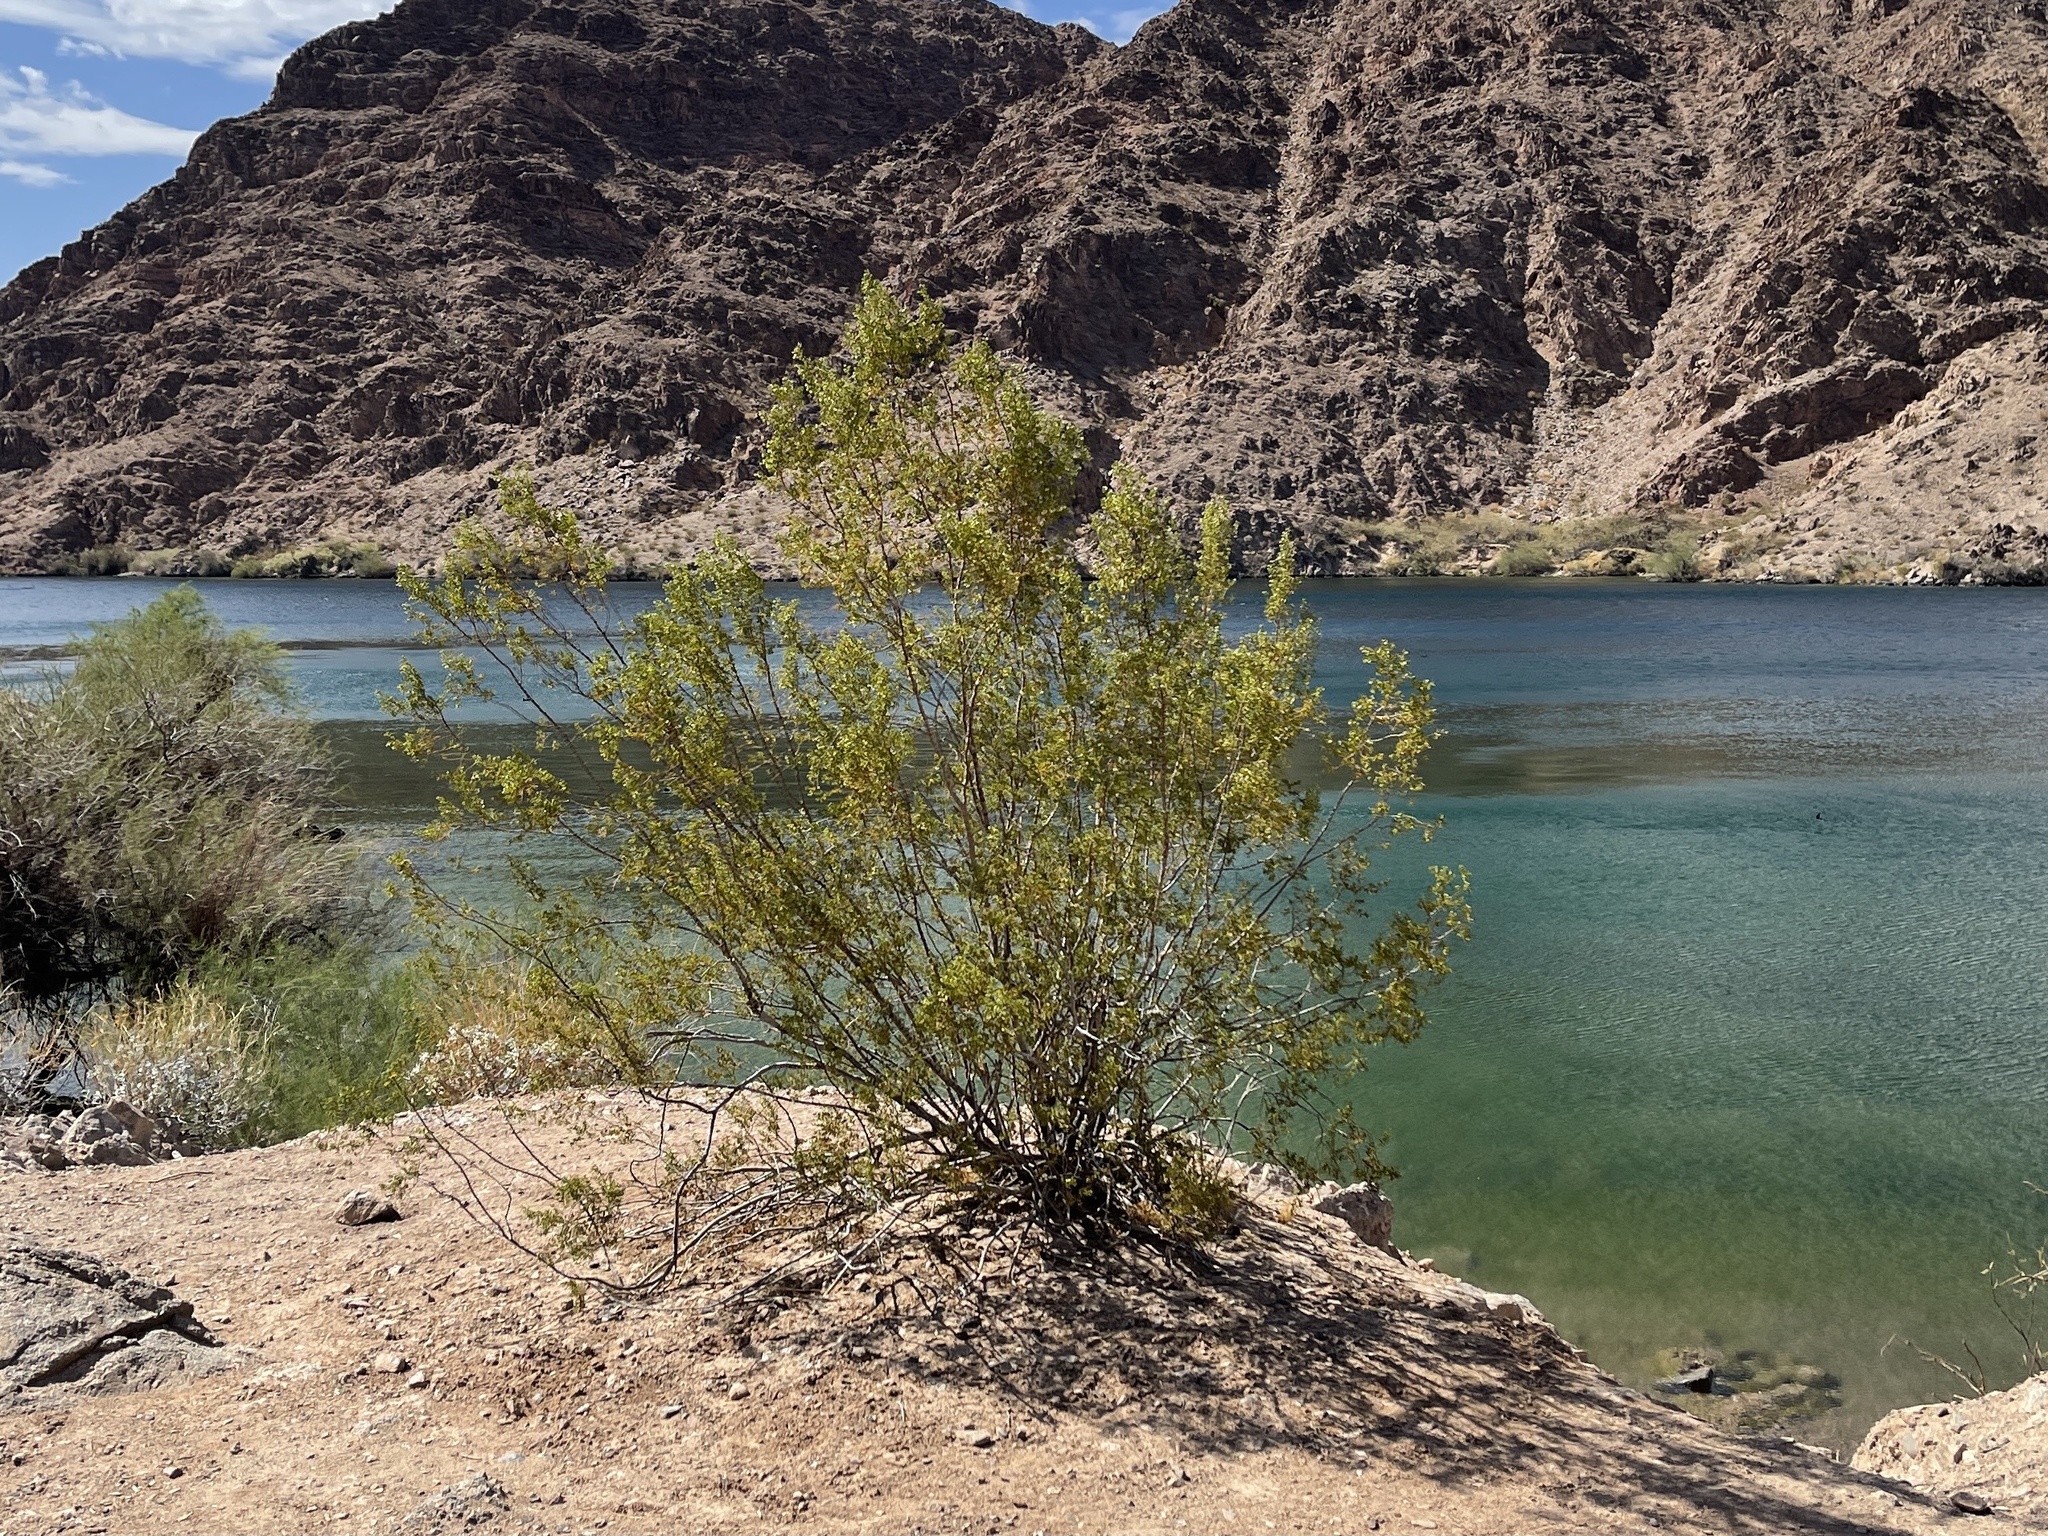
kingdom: Plantae
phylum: Tracheophyta
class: Magnoliopsida
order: Zygophyllales
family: Zygophyllaceae
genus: Larrea
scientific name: Larrea tridentata
